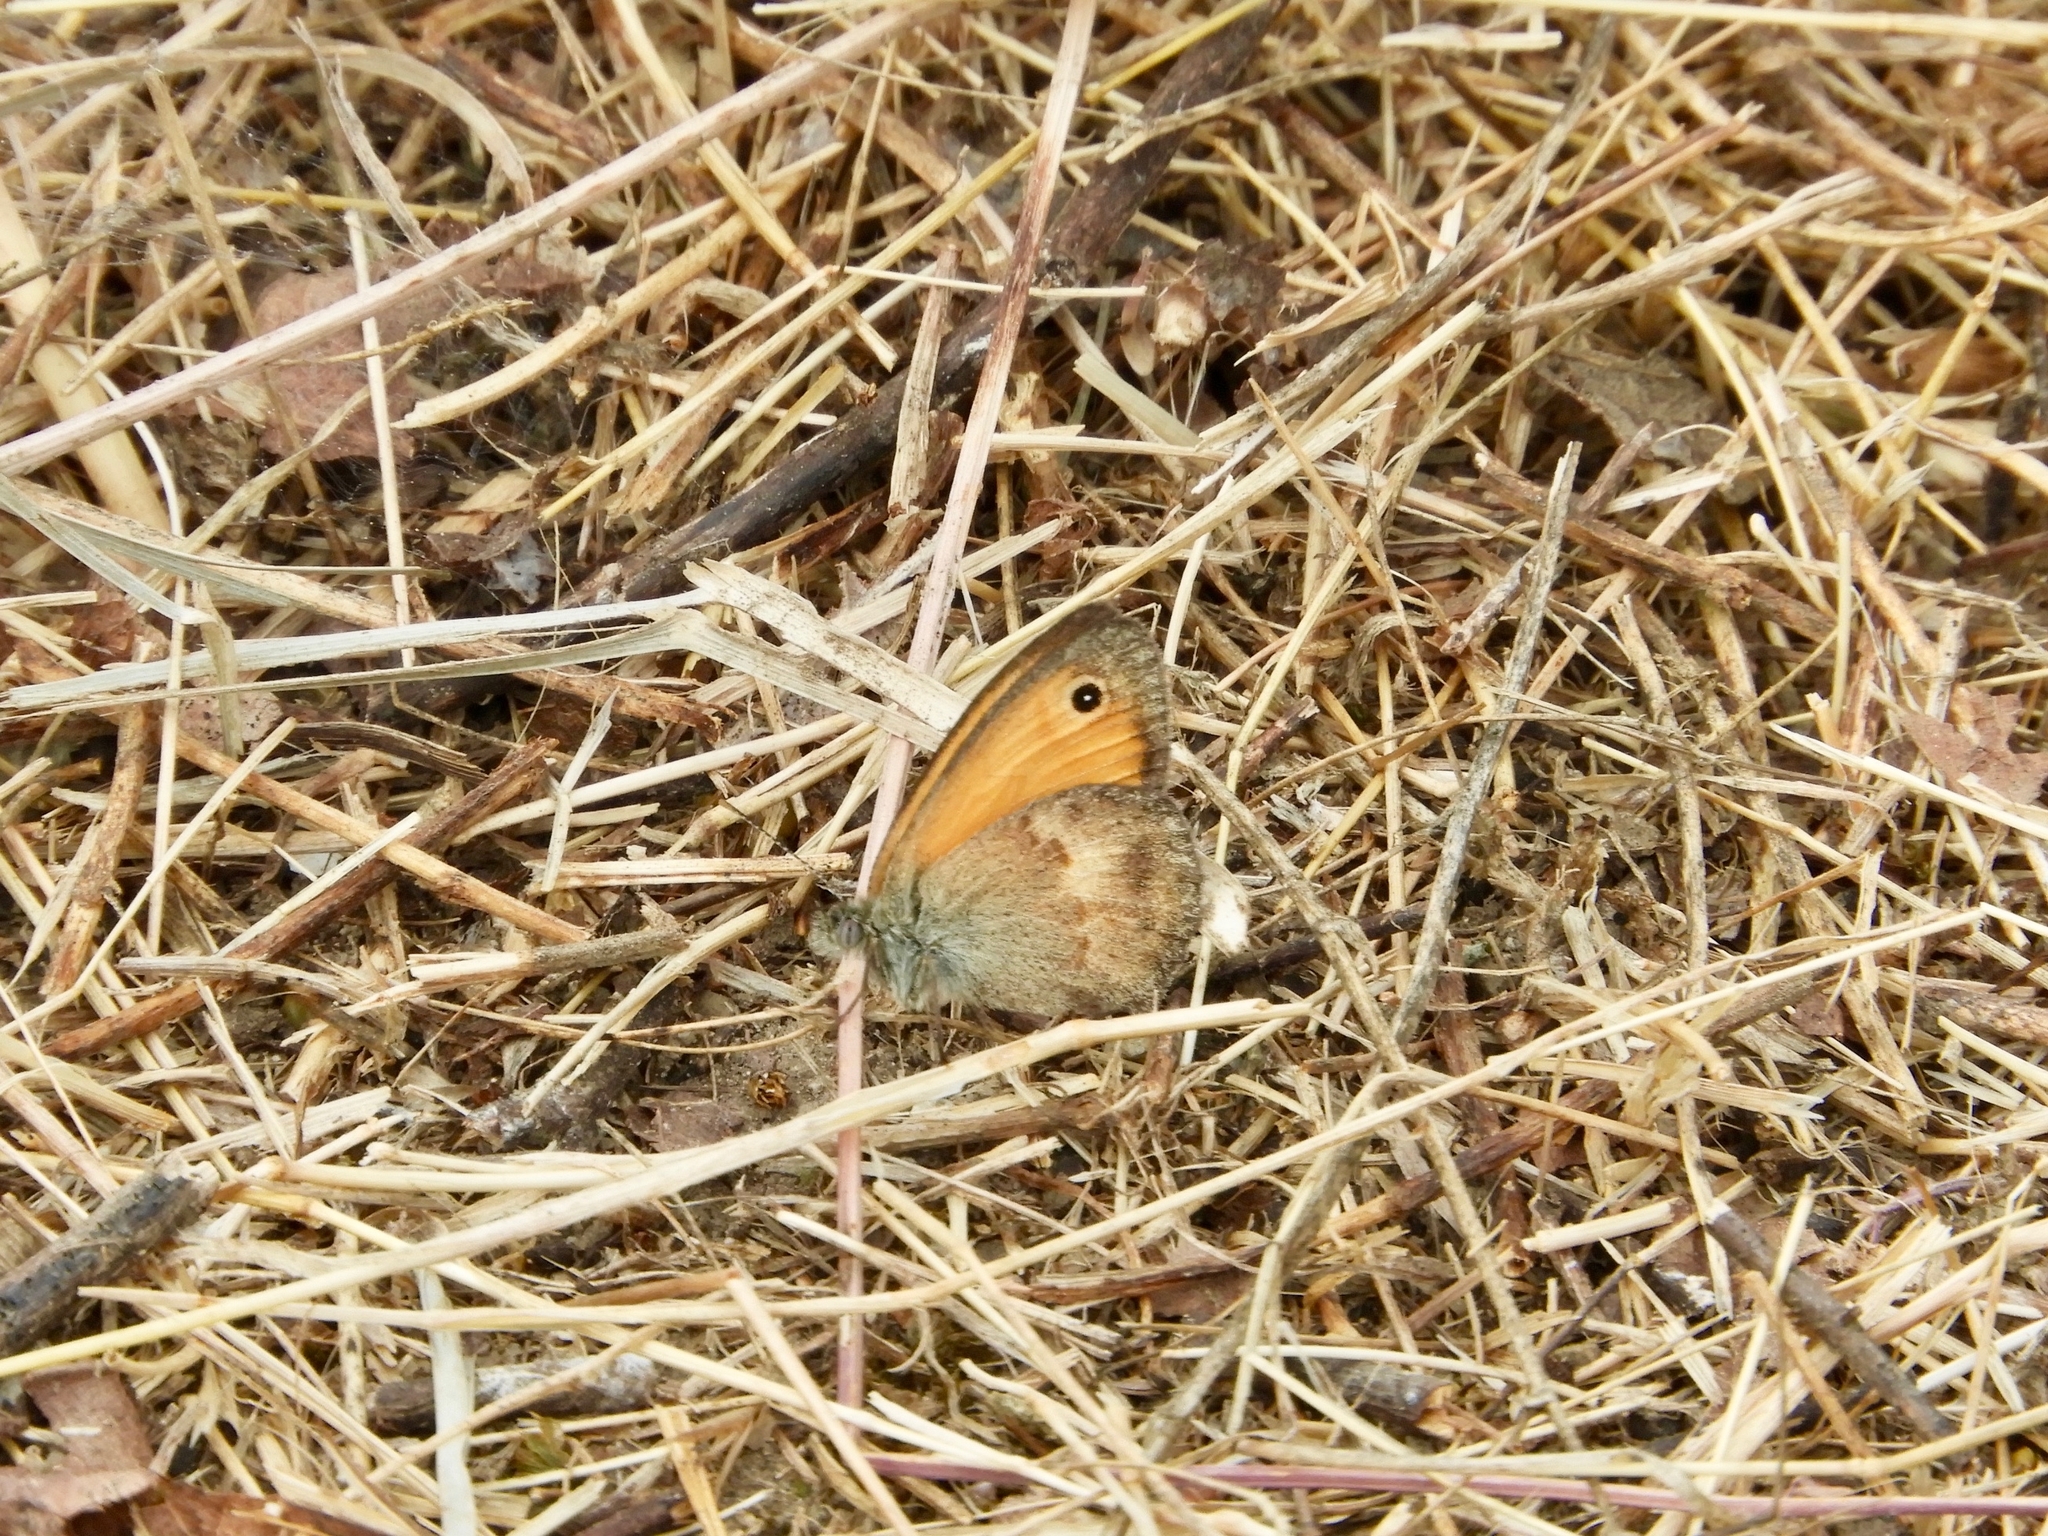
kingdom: Animalia
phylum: Arthropoda
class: Insecta
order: Lepidoptera
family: Nymphalidae
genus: Coenonympha
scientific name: Coenonympha pamphilus
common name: Small heath
